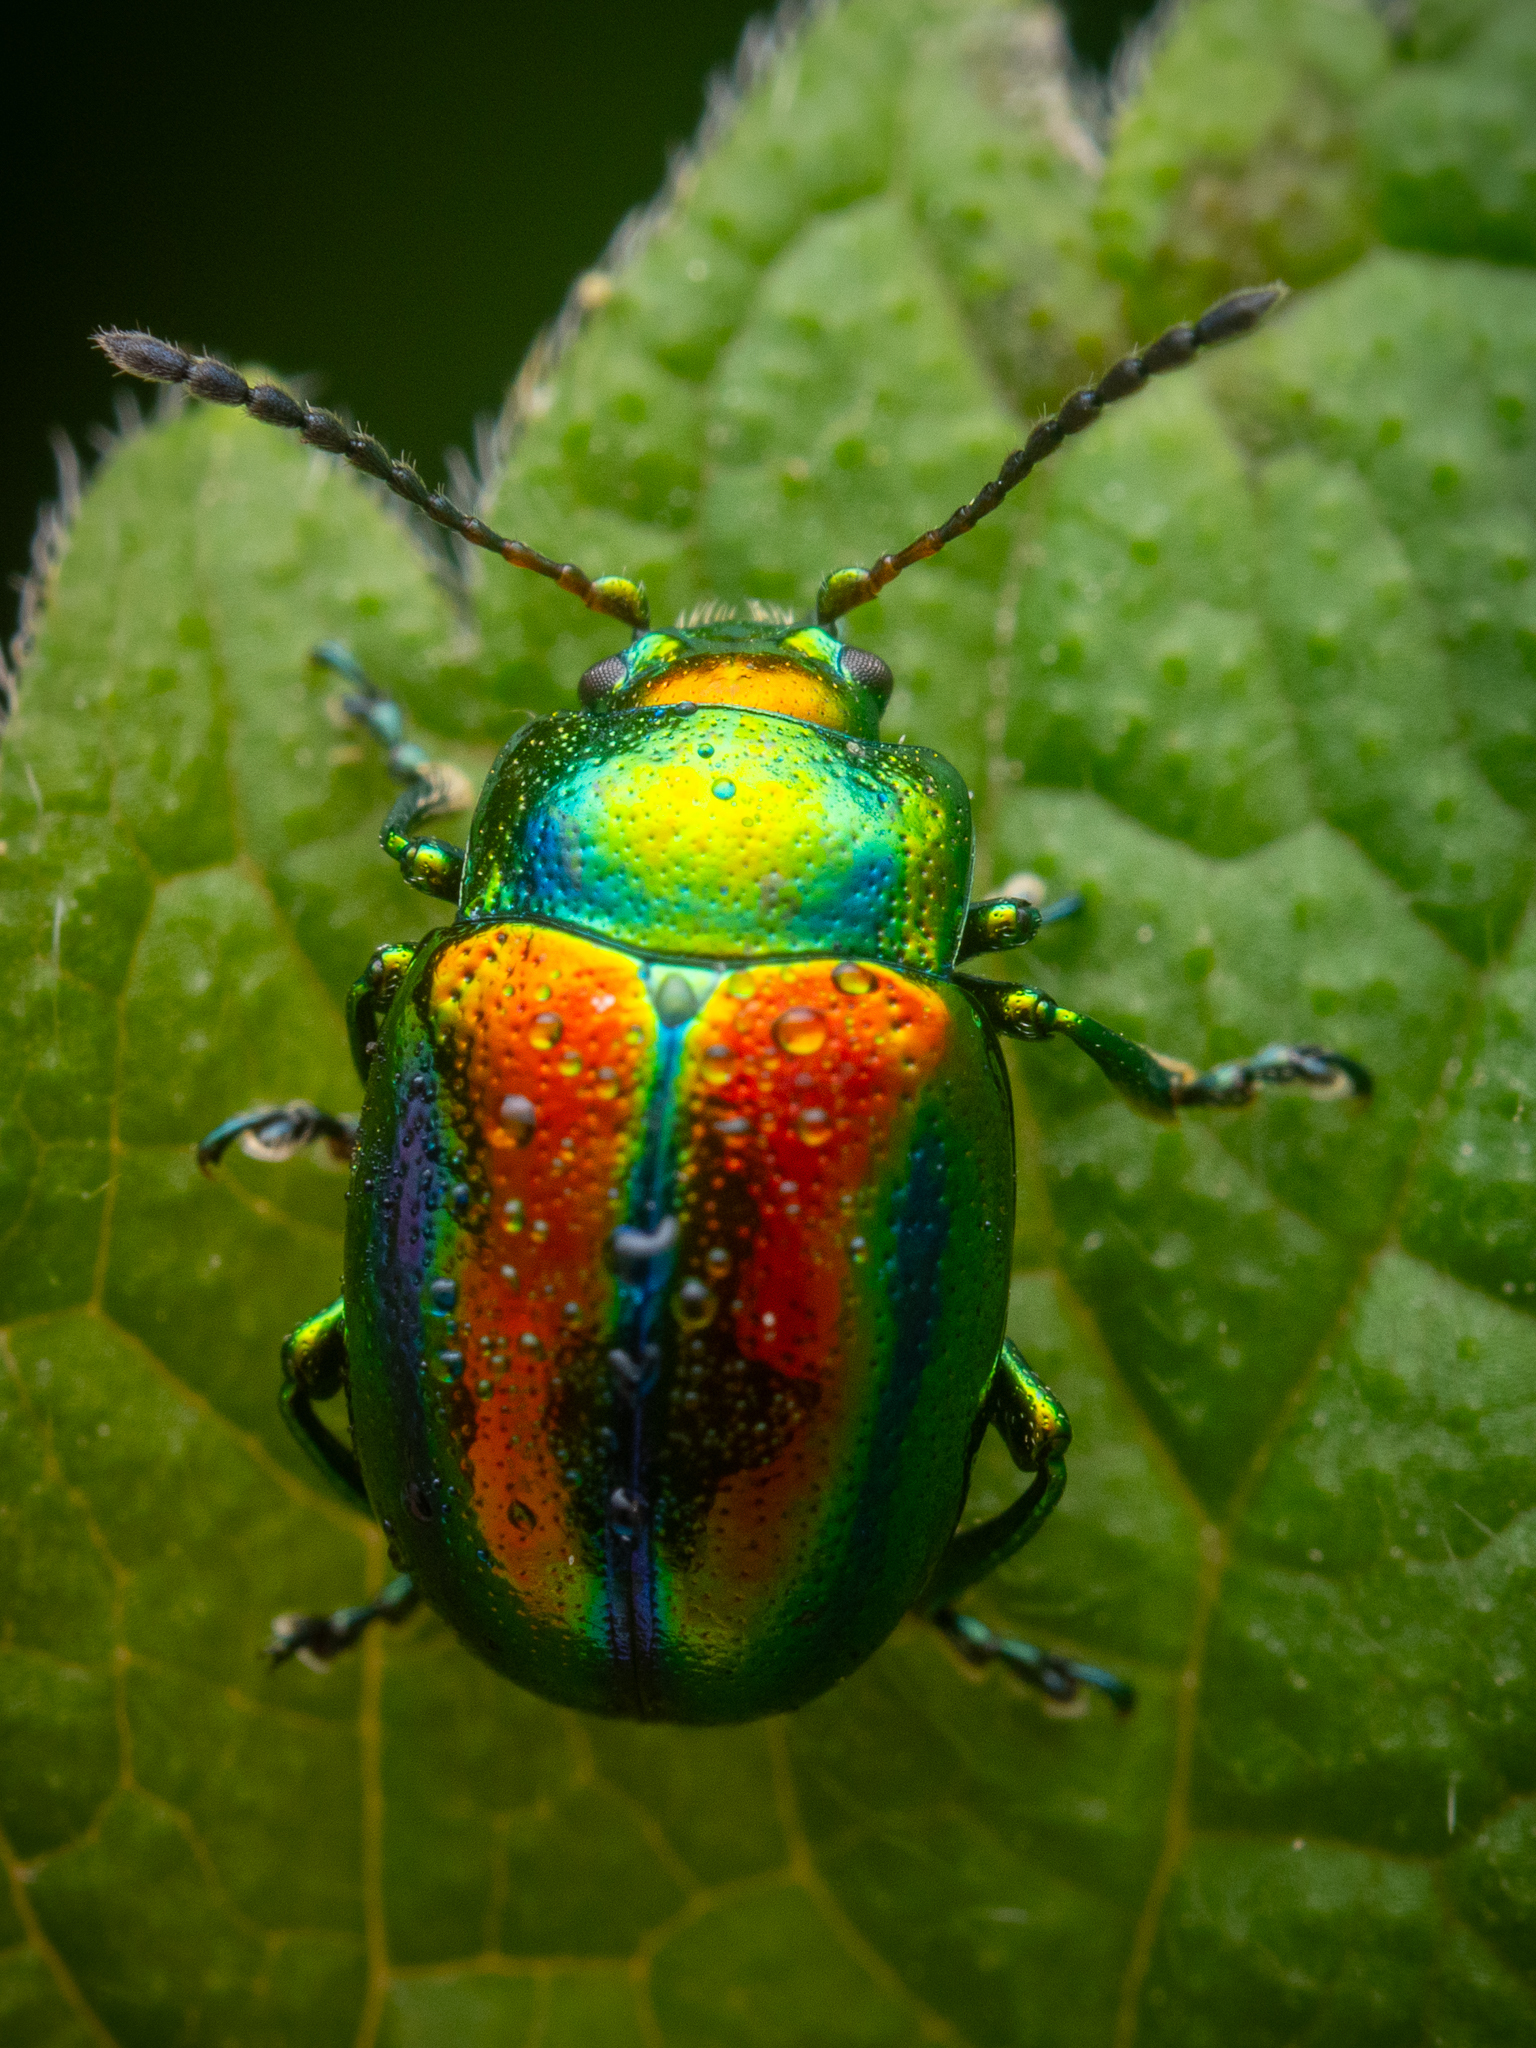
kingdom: Animalia
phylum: Arthropoda
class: Insecta
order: Coleoptera
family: Chrysomelidae
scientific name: Chrysomelidae
